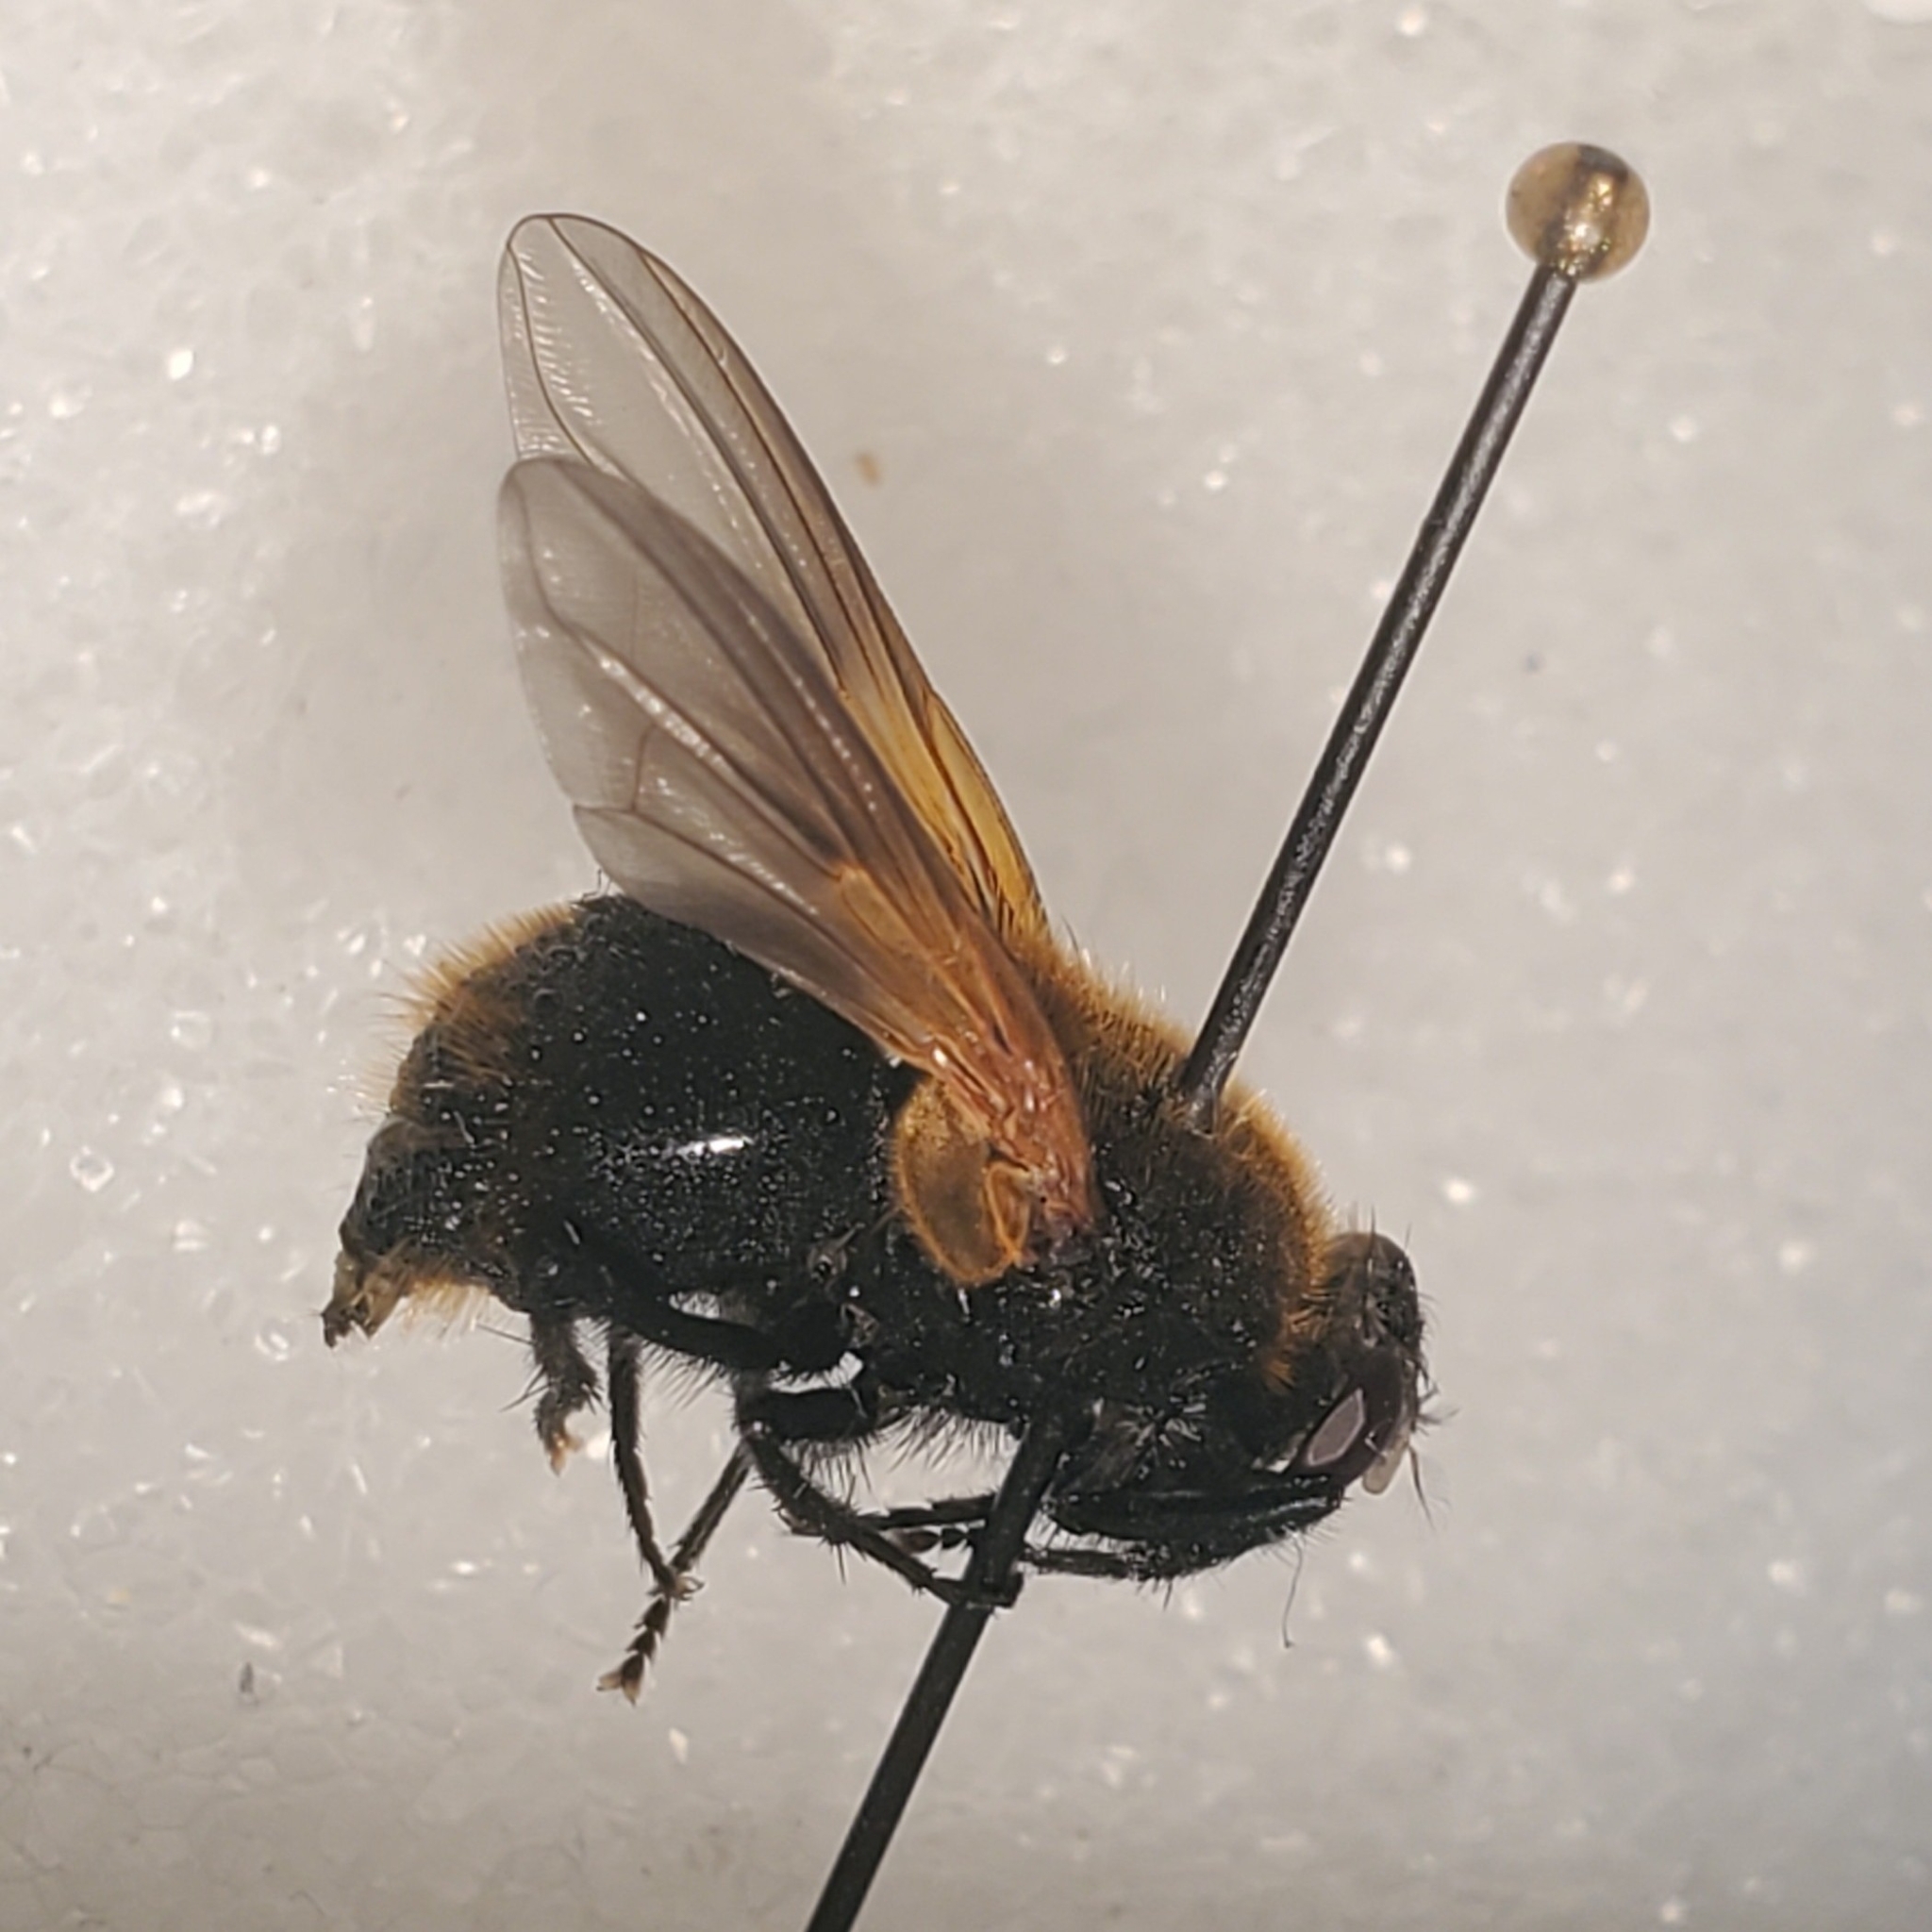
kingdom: Animalia
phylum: Arthropoda
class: Insecta
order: Diptera
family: Muscidae
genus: Mesembrina
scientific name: Mesembrina decipiens
